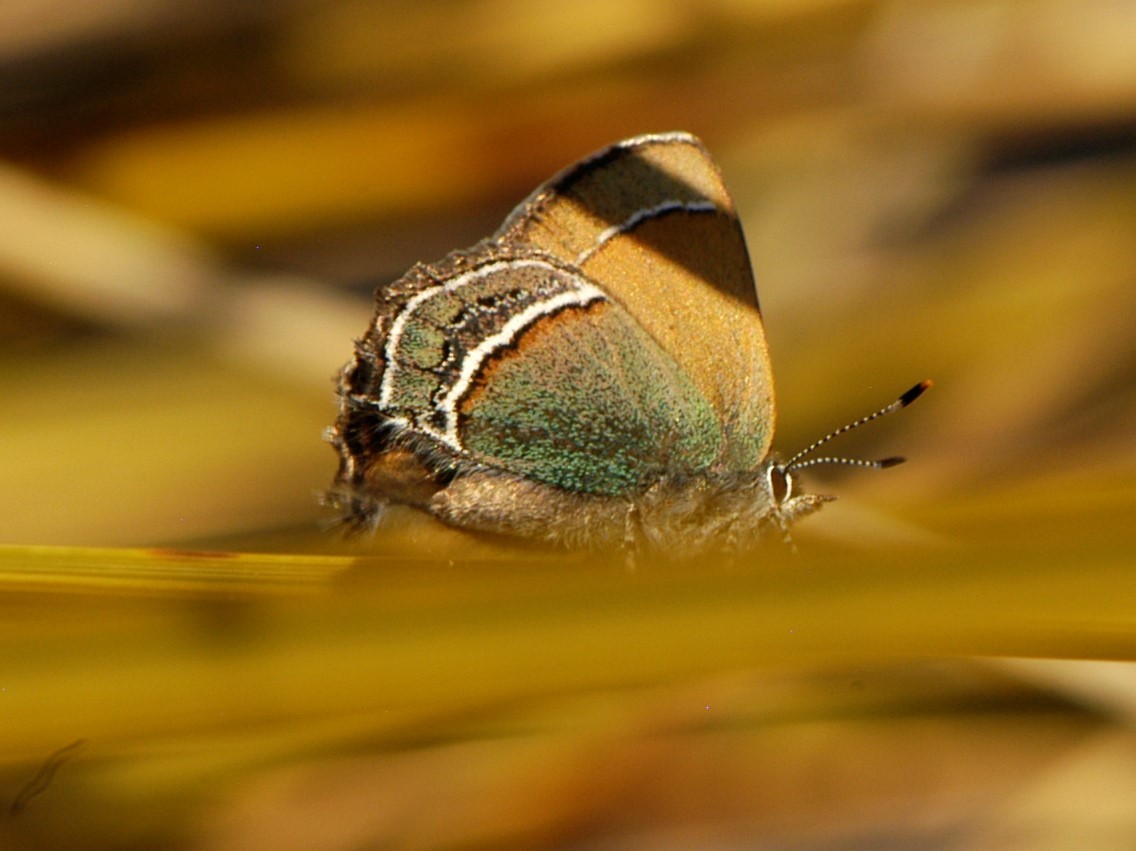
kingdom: Animalia
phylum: Arthropoda
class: Insecta
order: Lepidoptera
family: Lycaenidae
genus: Sandia
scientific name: Sandia mcfarlandi
